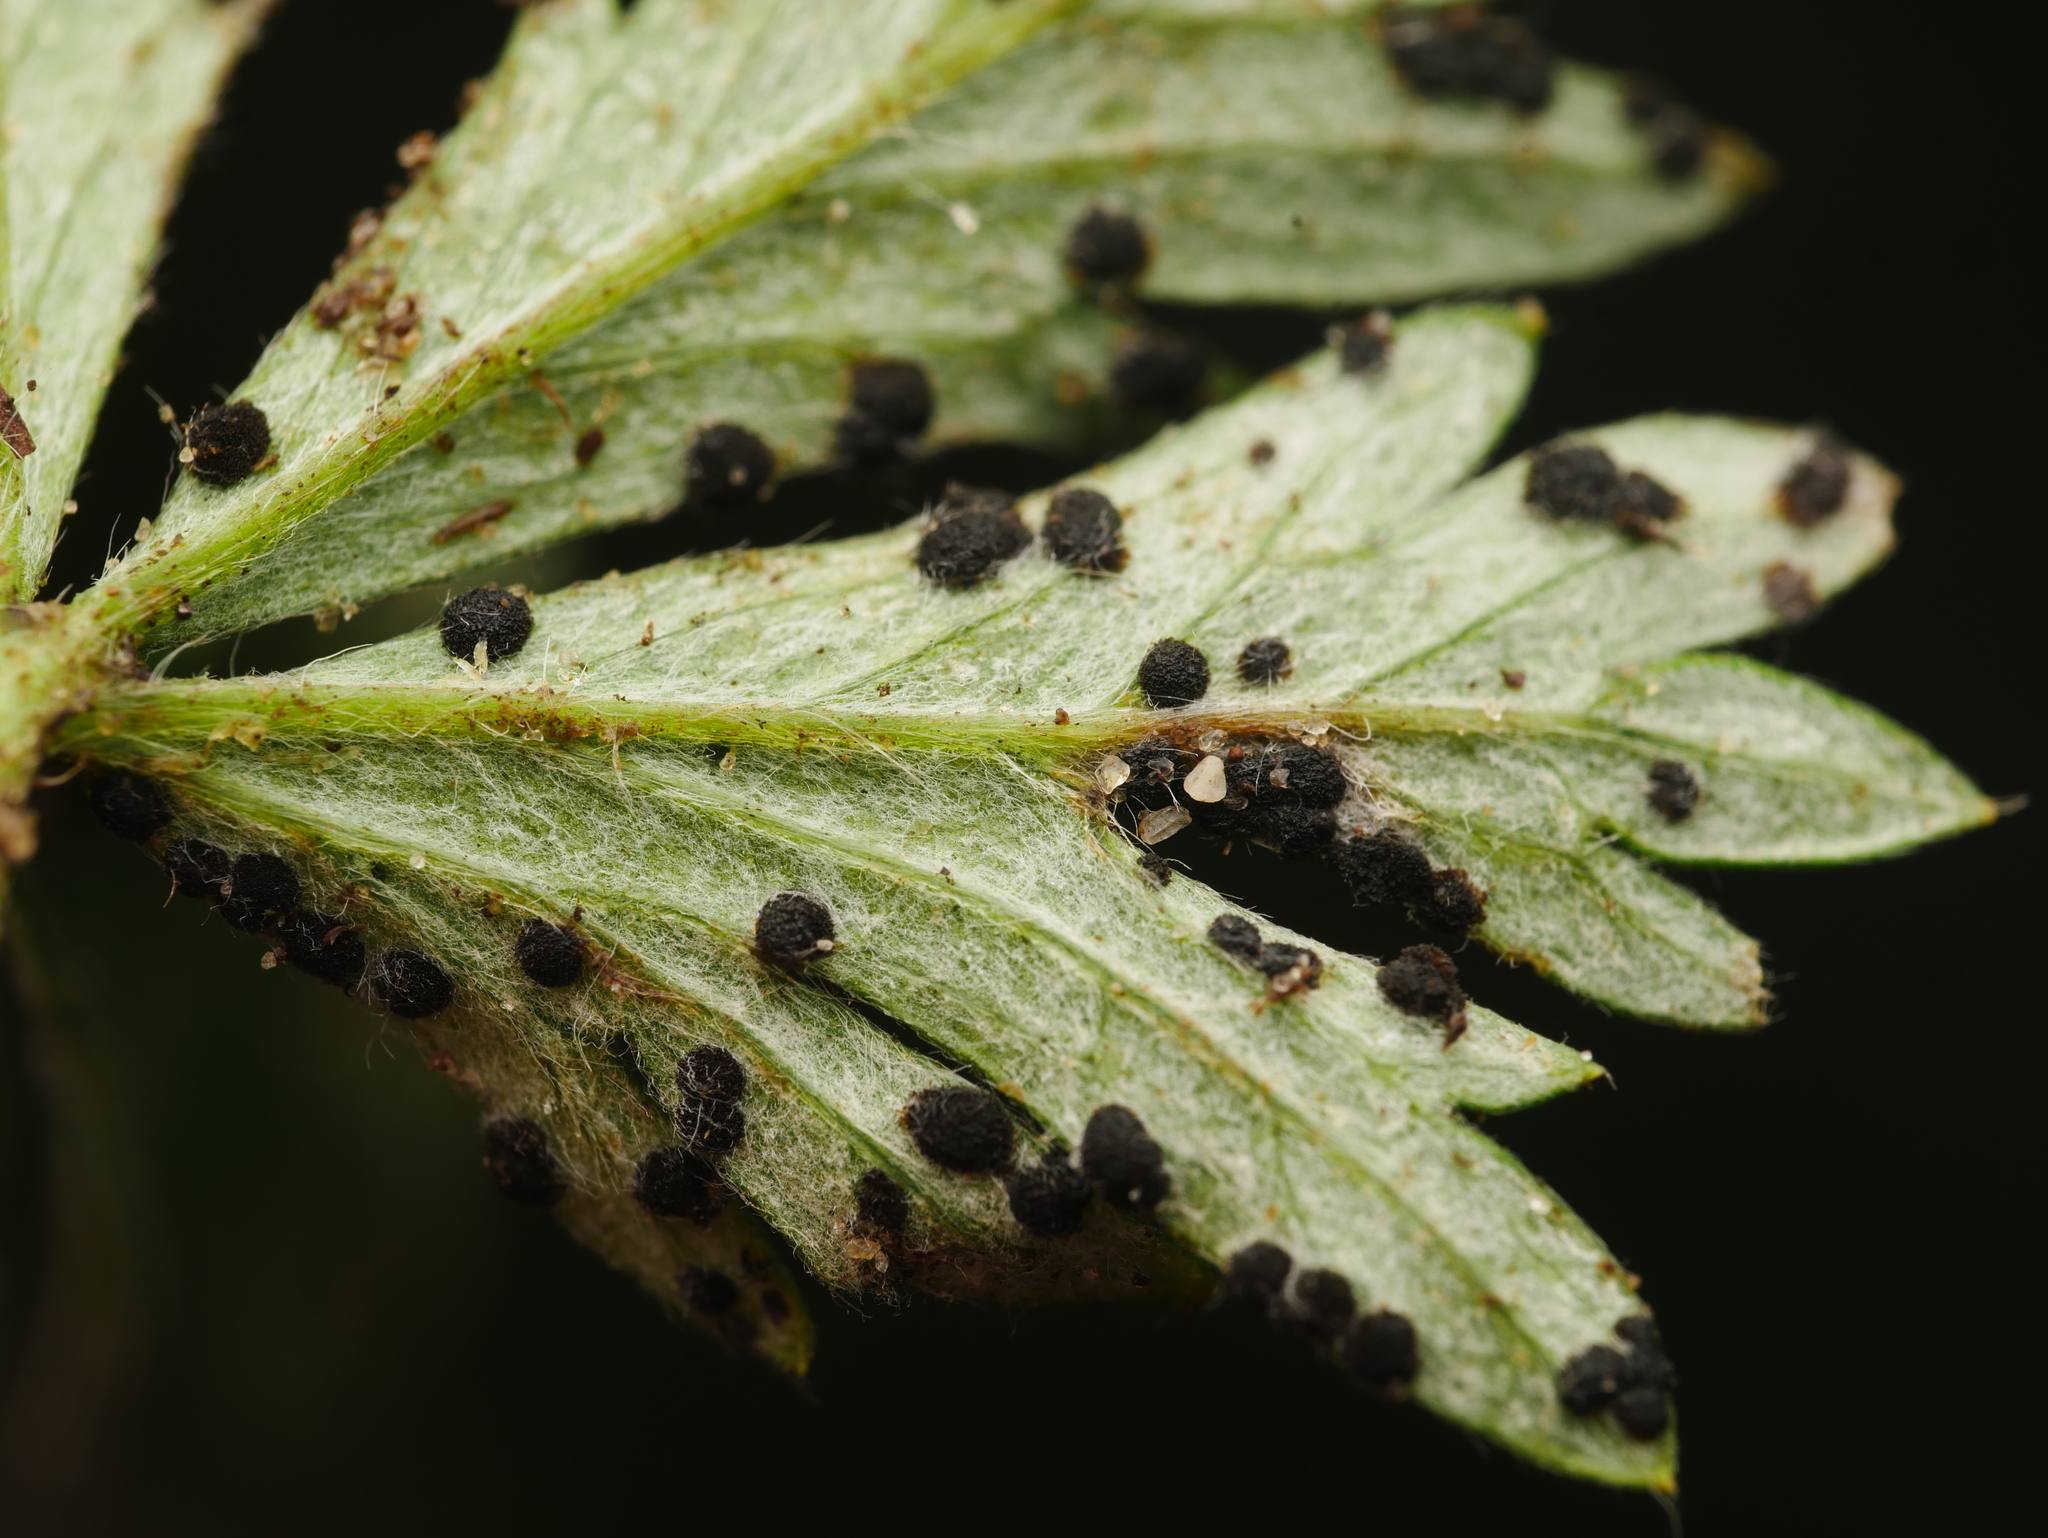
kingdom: Fungi
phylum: Basidiomycota
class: Pucciniomycetes
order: Pucciniales
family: Phragmidiaceae
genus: Phragmidium
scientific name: Phragmidium potentillae
